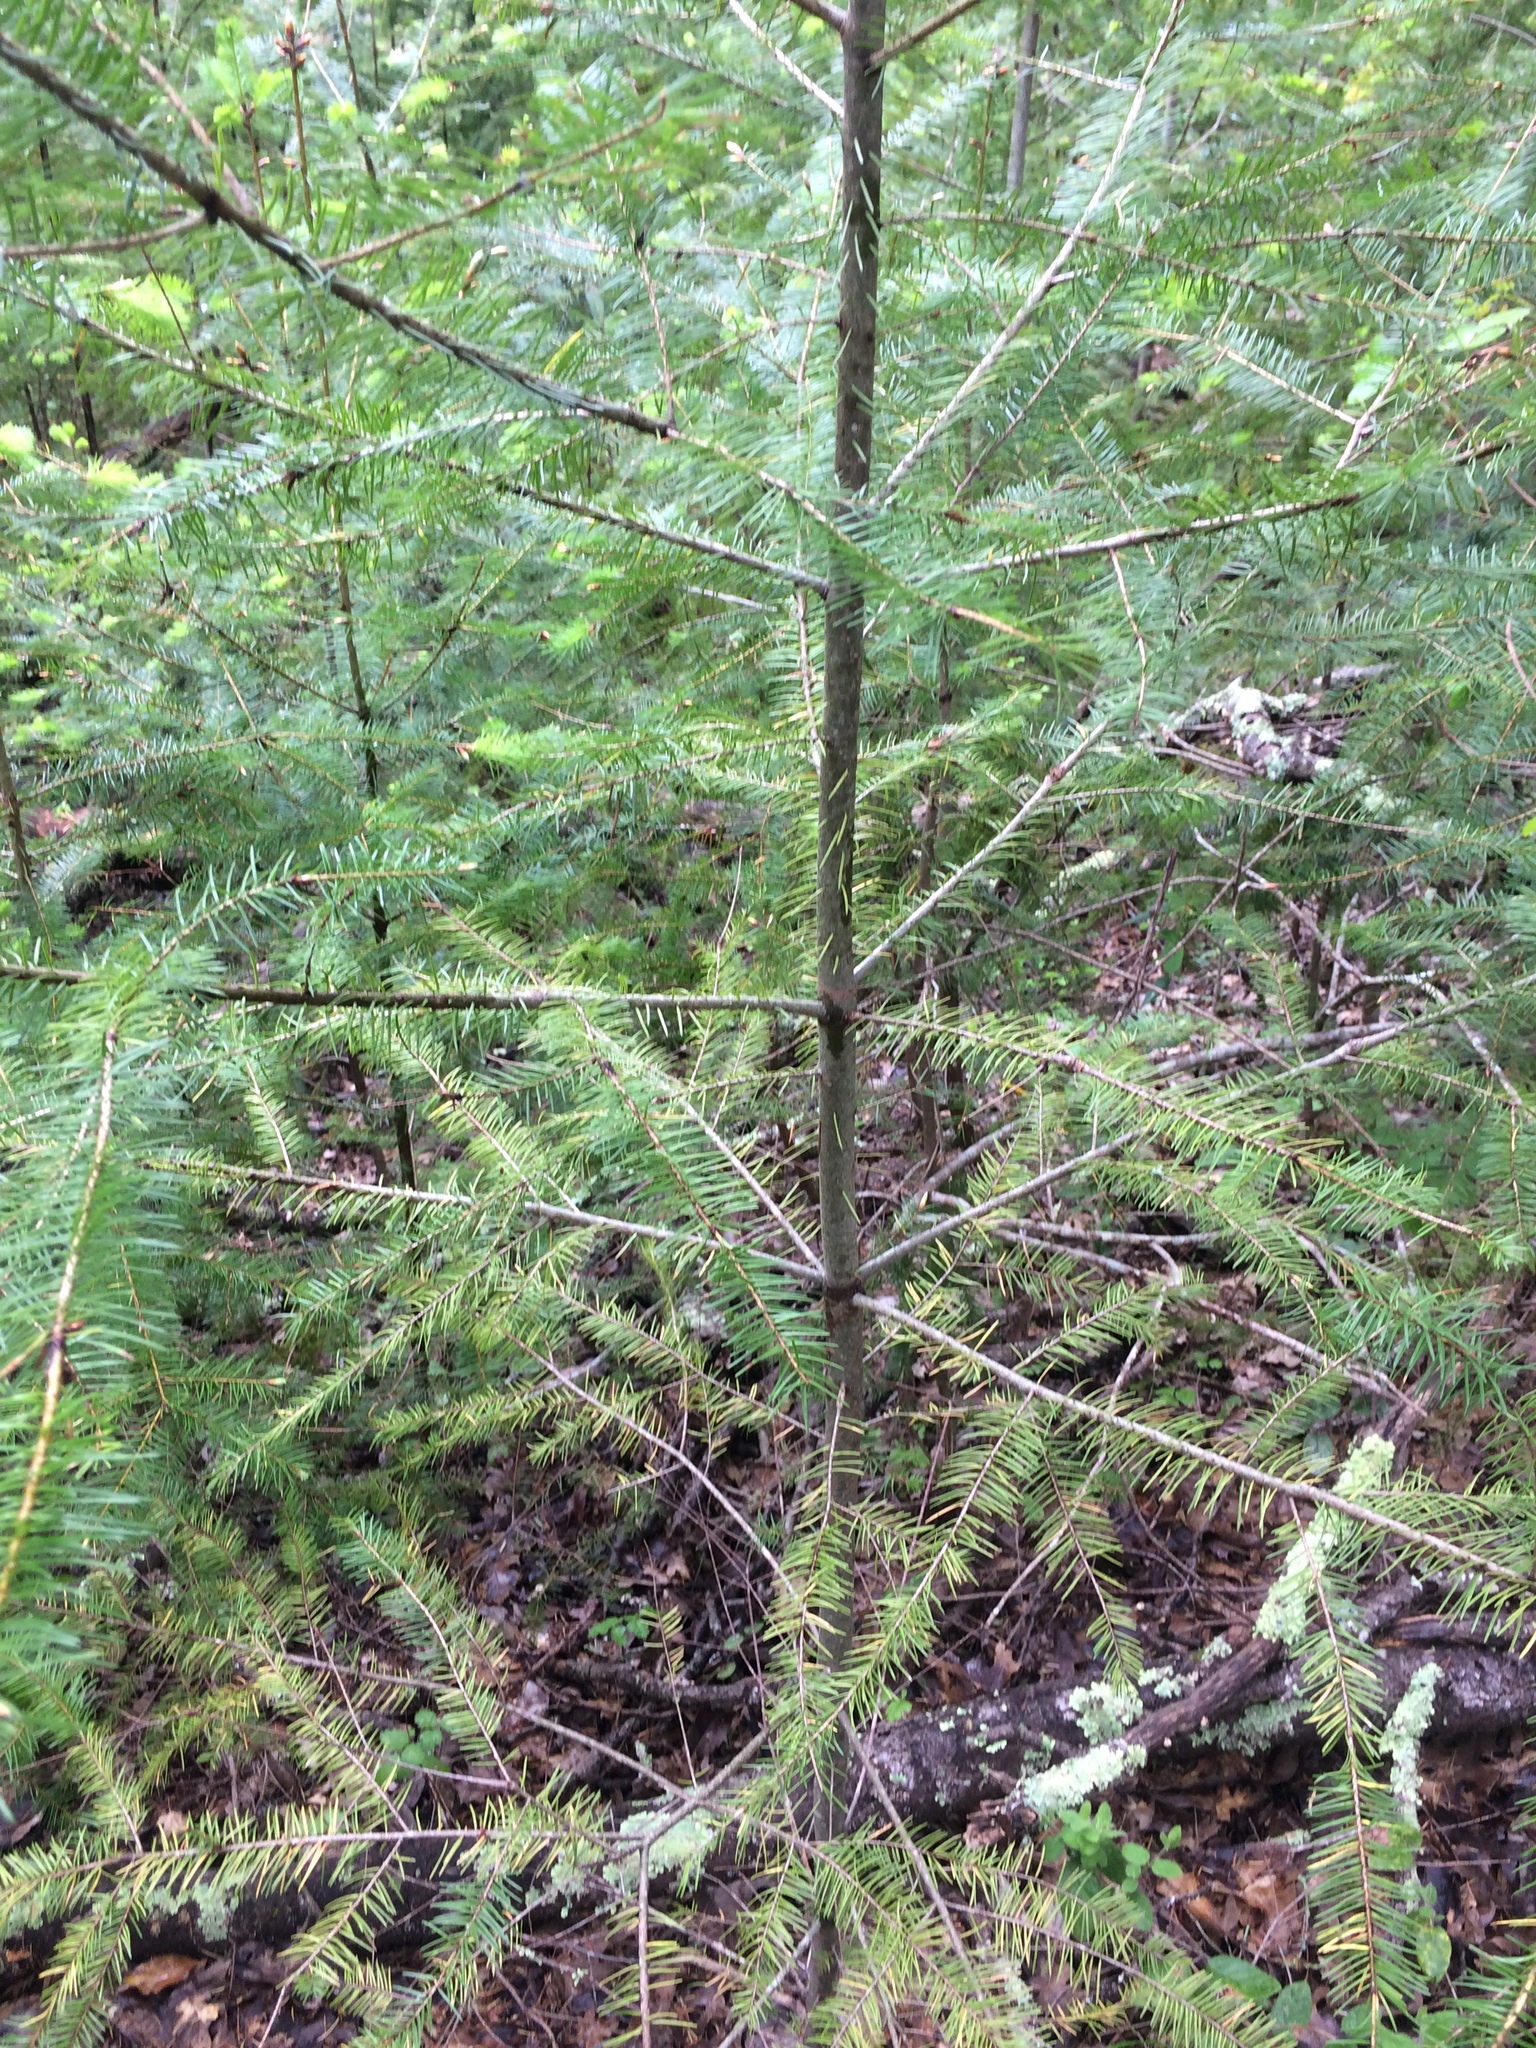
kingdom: Plantae
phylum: Tracheophyta
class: Pinopsida
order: Pinales
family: Pinaceae
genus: Pseudotsuga
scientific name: Pseudotsuga menziesii
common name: Douglas fir
